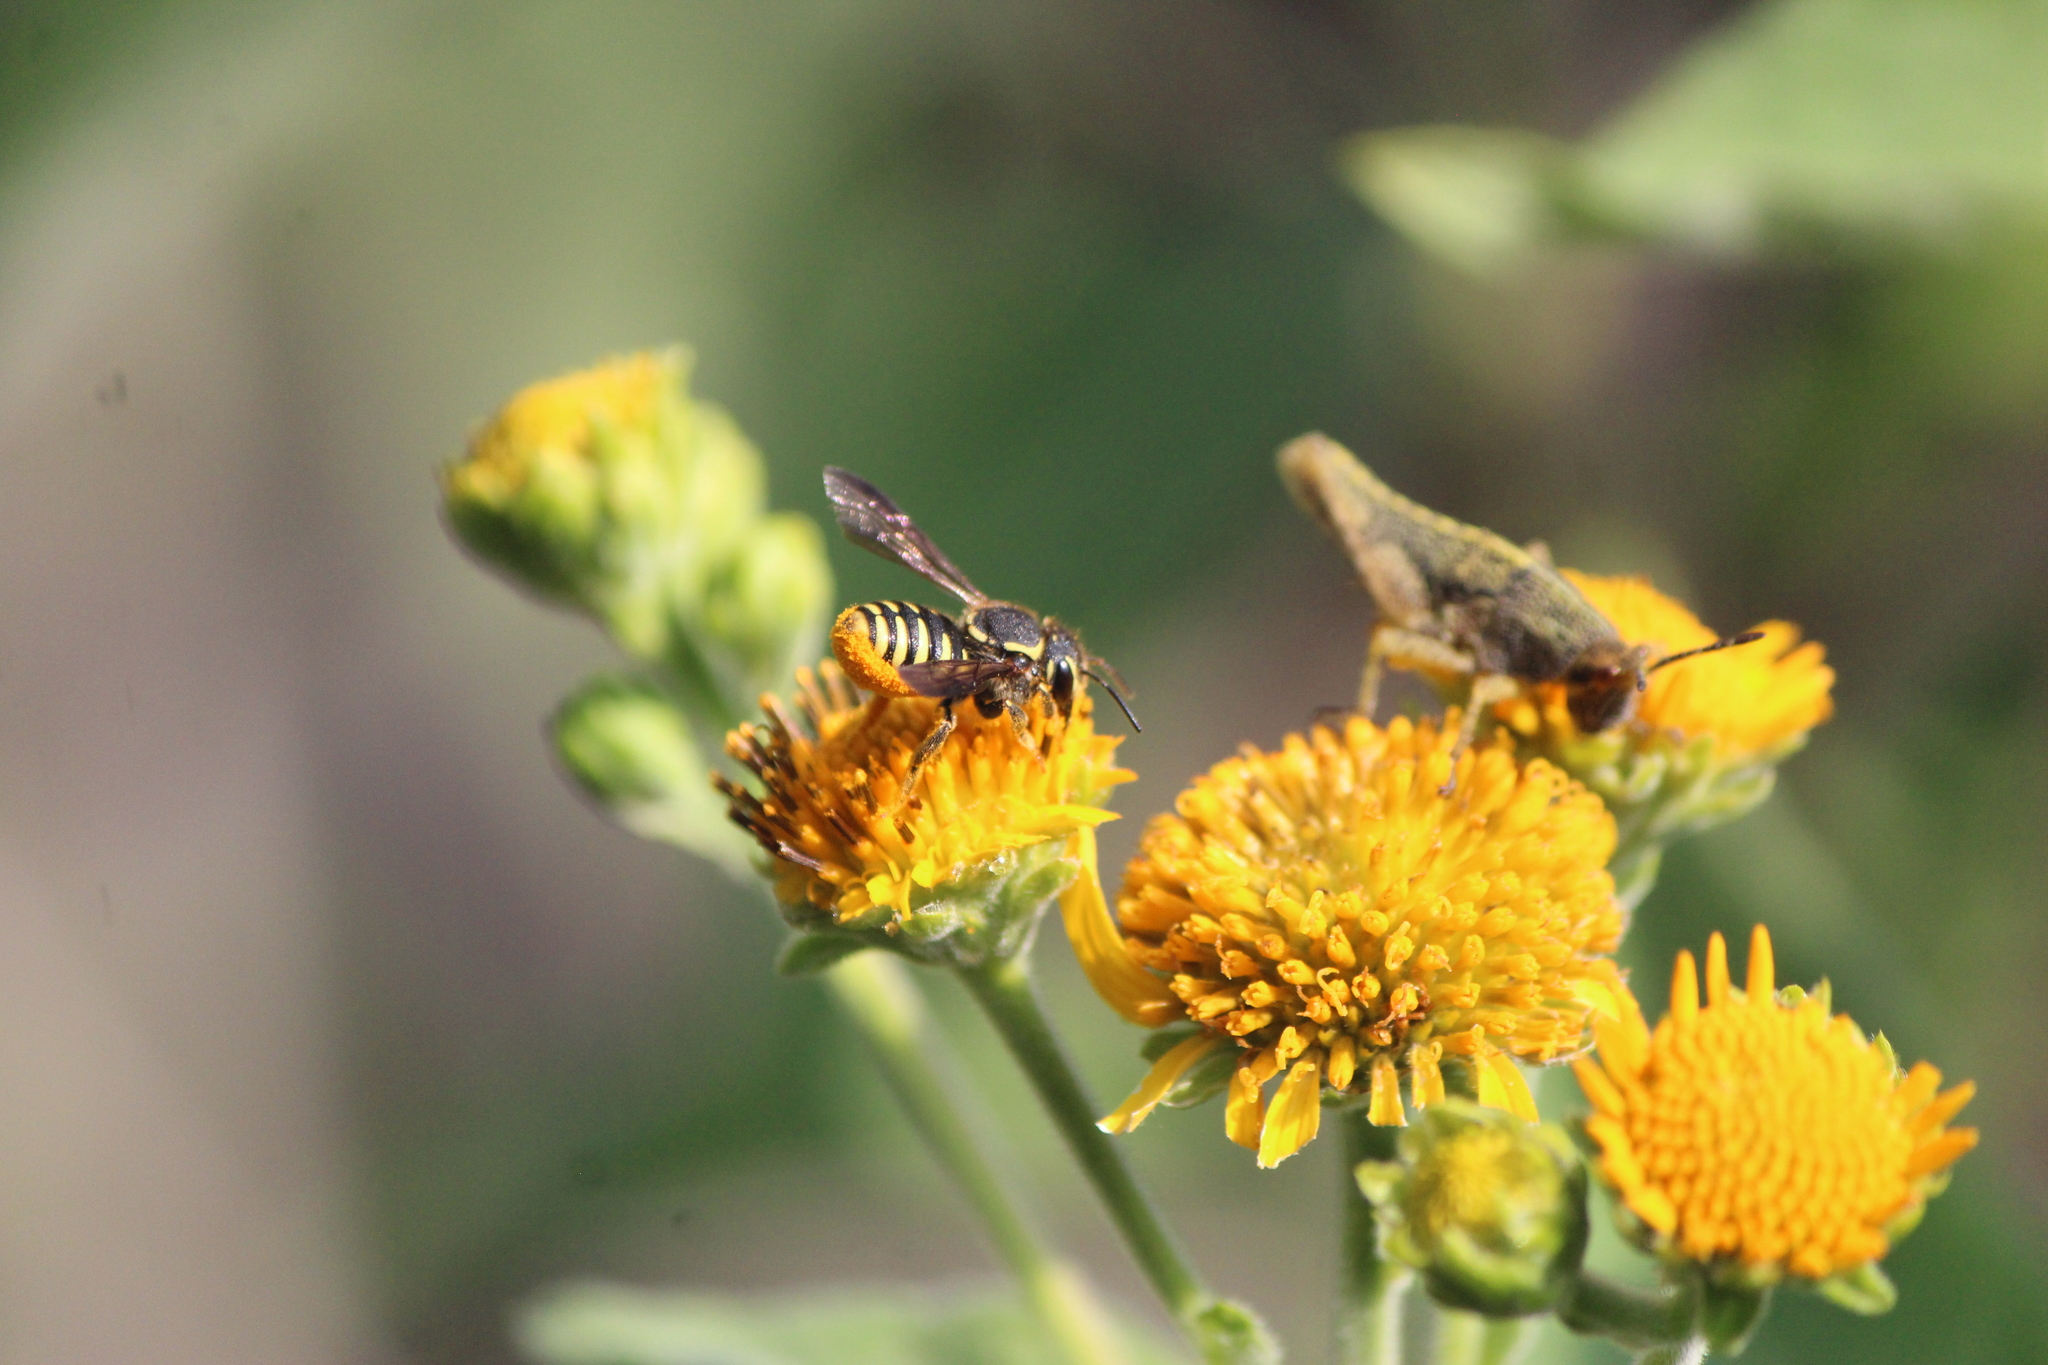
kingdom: Animalia
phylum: Arthropoda
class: Insecta
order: Hymenoptera
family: Megachilidae
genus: Paranthidium
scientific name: Paranthidium gabbii
